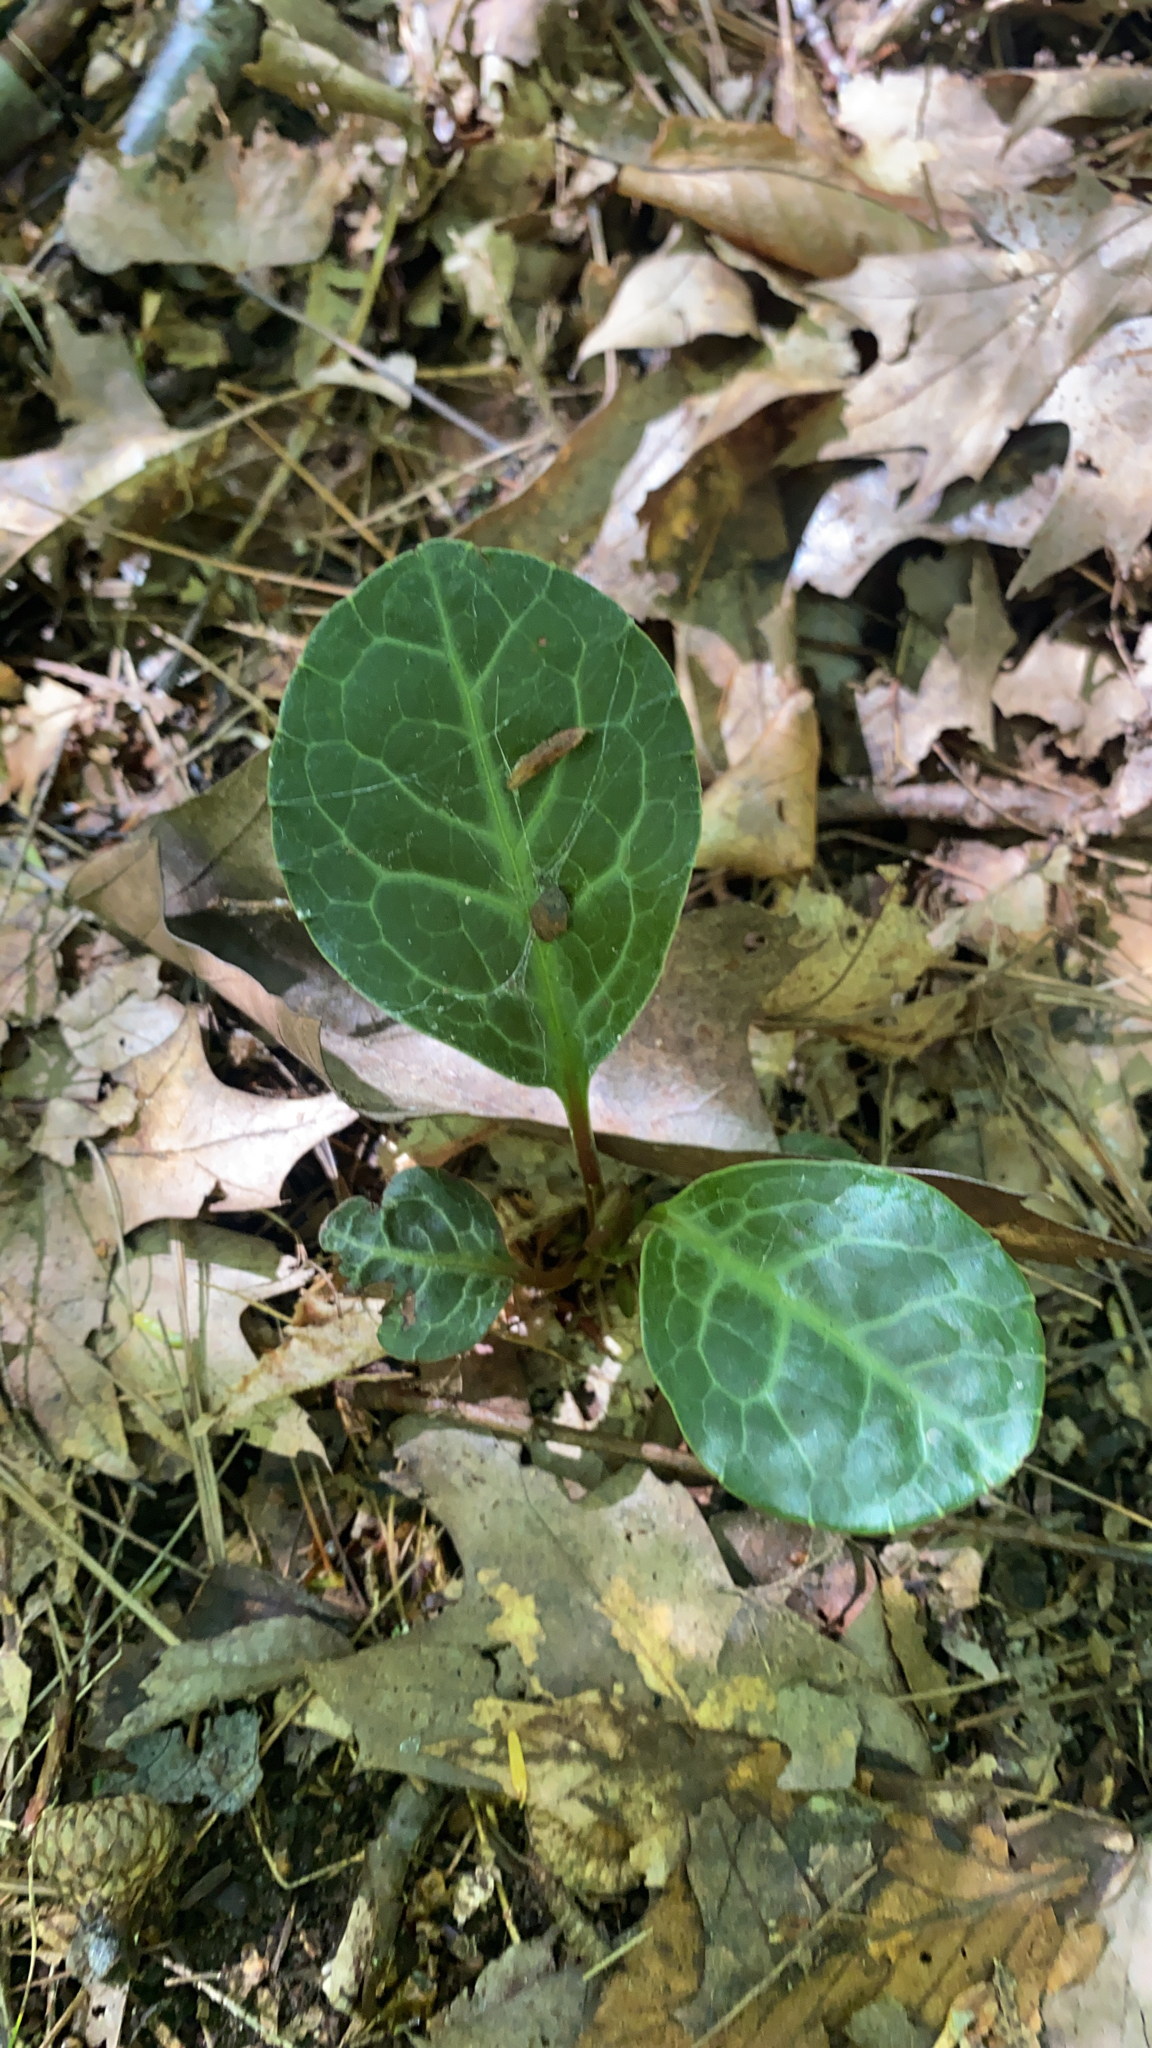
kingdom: Plantae
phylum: Tracheophyta
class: Magnoliopsida
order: Ericales
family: Ericaceae
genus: Pyrola
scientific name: Pyrola americana
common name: American wintergreen
